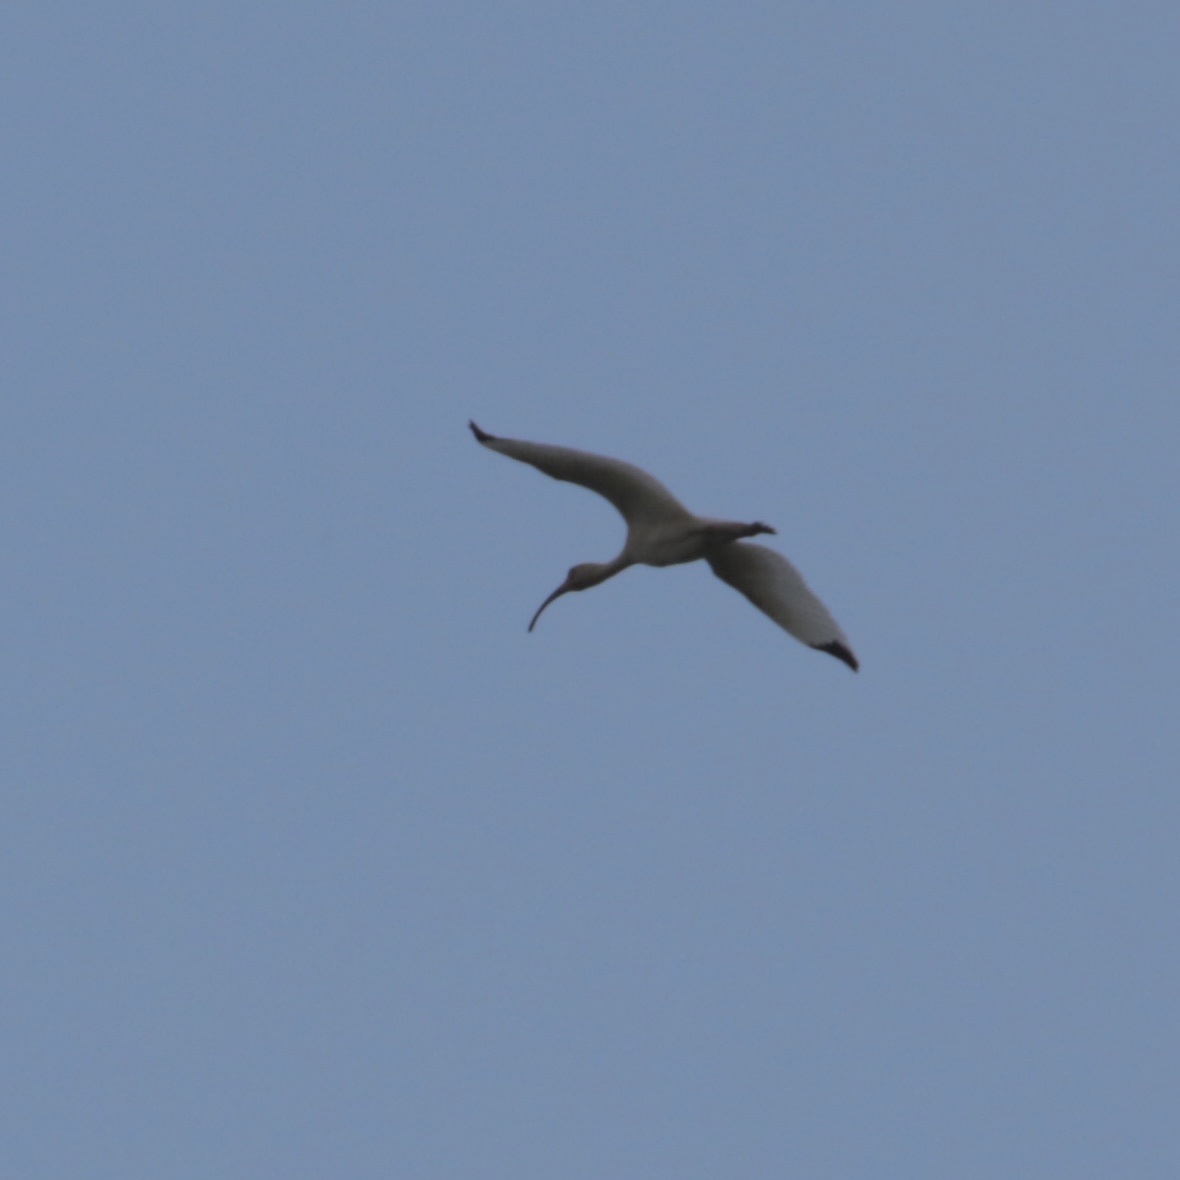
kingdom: Animalia
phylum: Chordata
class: Aves
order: Pelecaniformes
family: Threskiornithidae
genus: Eudocimus
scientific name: Eudocimus albus
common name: White ibis
